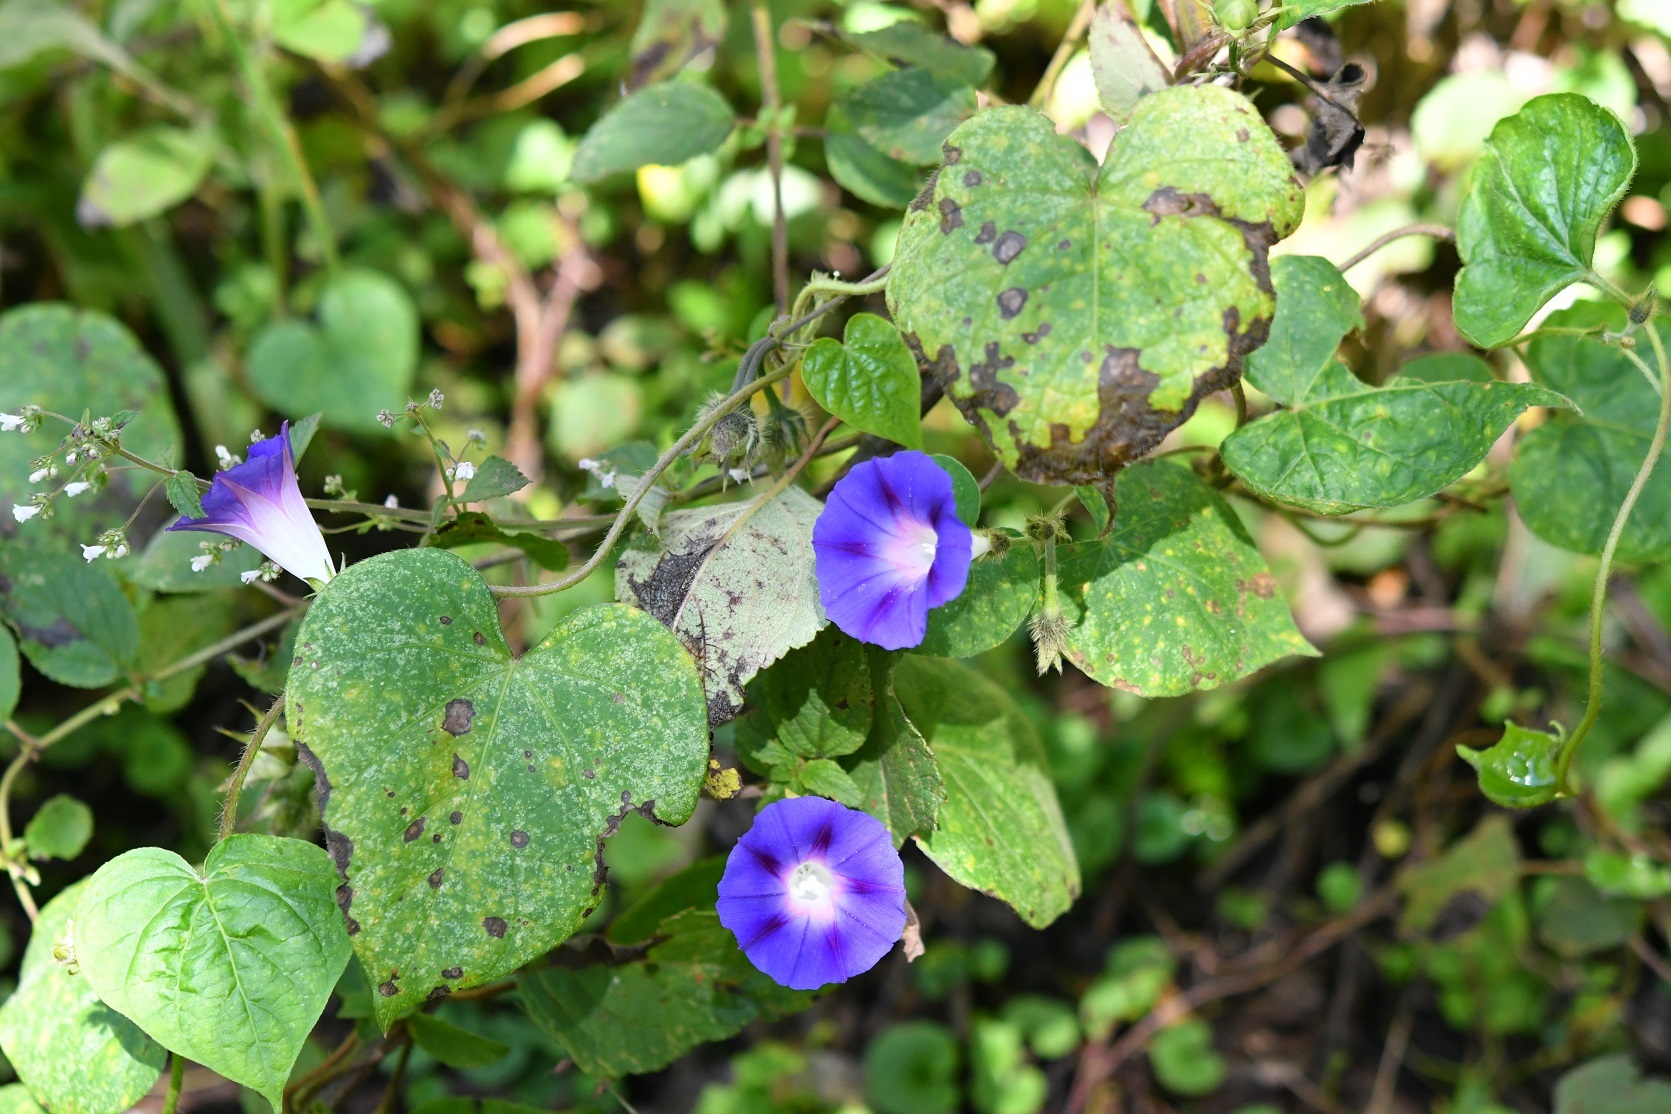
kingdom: Plantae
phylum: Tracheophyta
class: Magnoliopsida
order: Solanales
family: Convolvulaceae
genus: Ipomoea
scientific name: Ipomoea purpurea
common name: Common morning-glory
